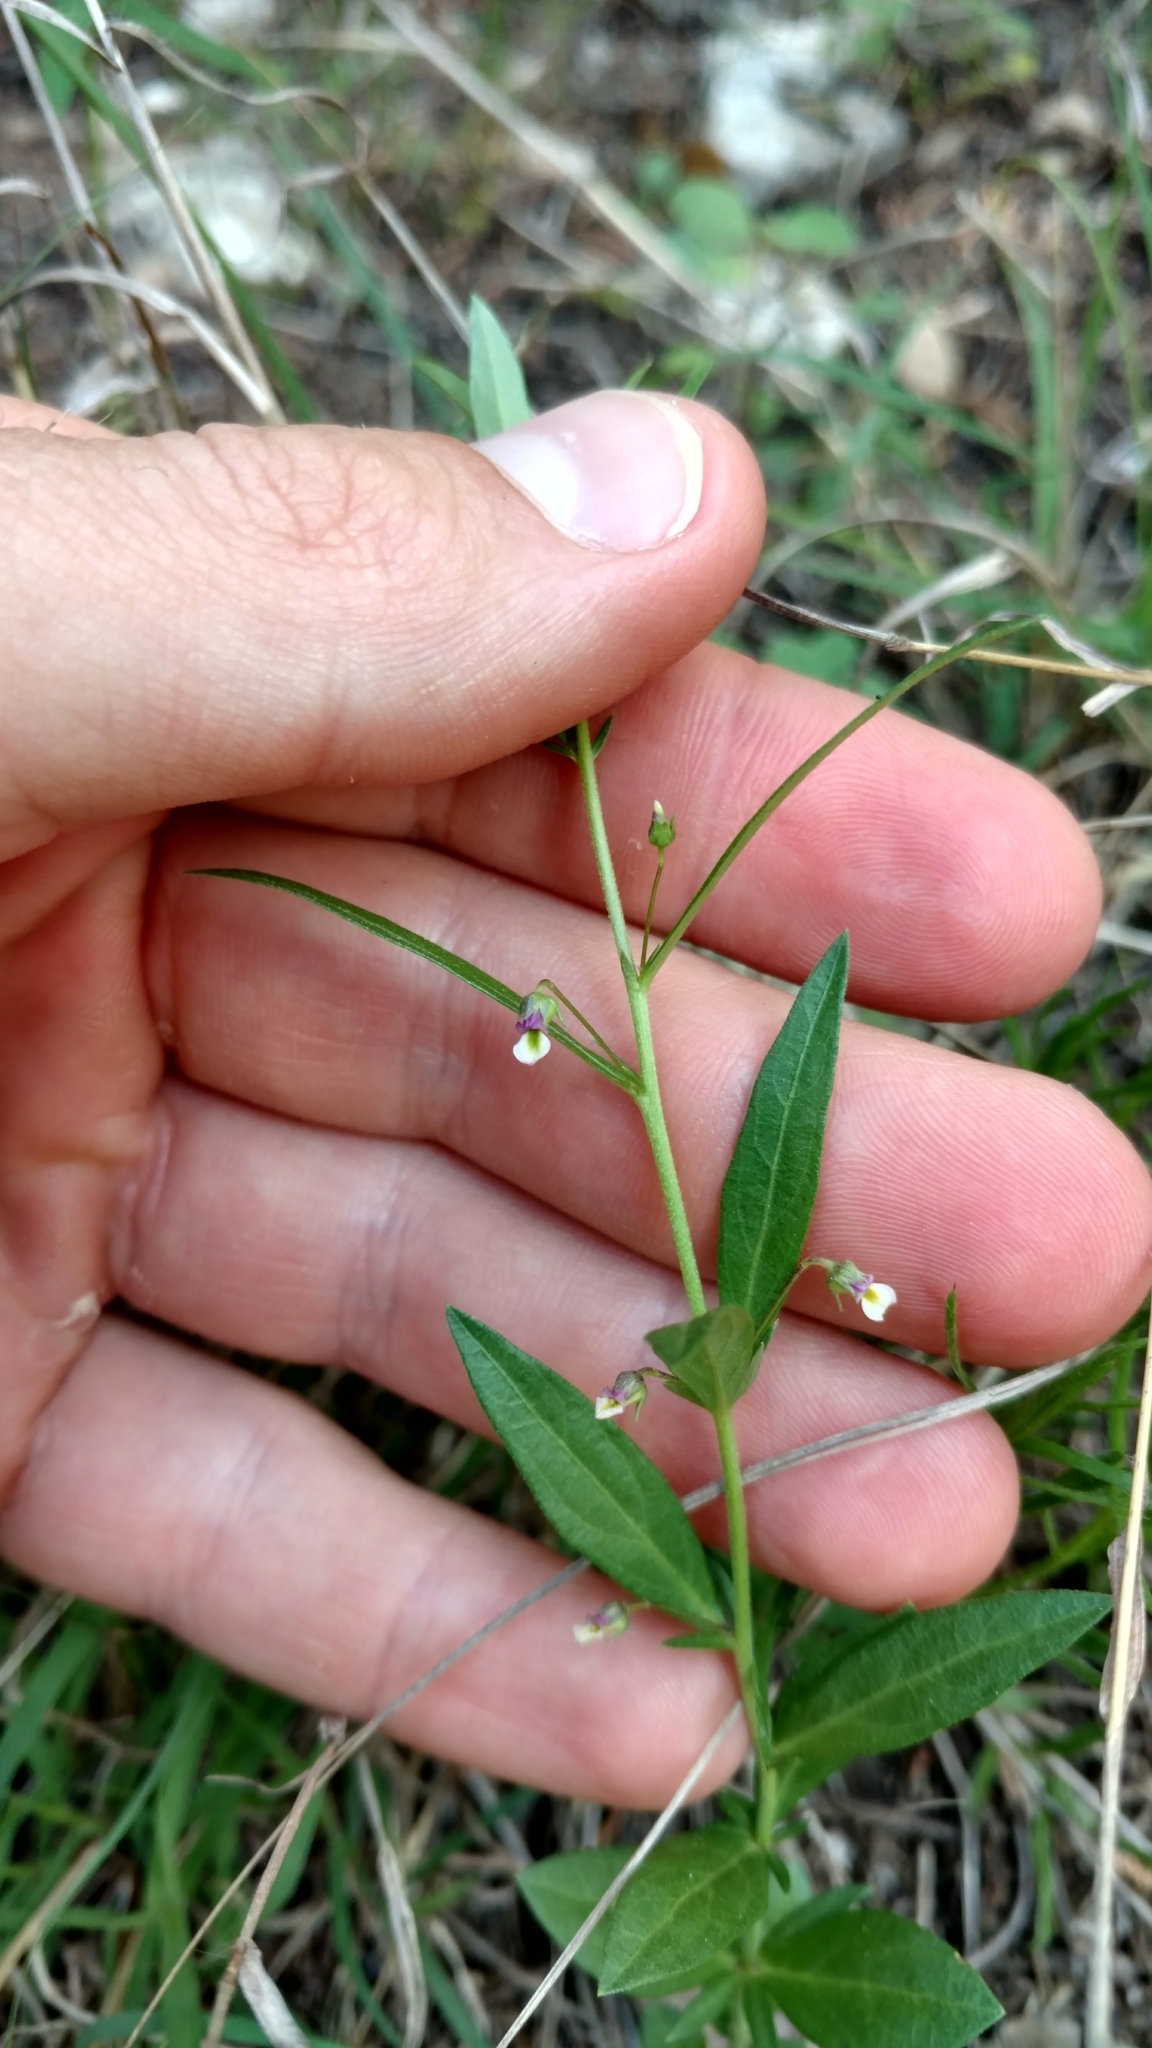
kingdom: Plantae
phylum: Tracheophyta
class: Magnoliopsida
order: Malpighiales
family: Violaceae
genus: Pombalia
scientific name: Pombalia verticillata
